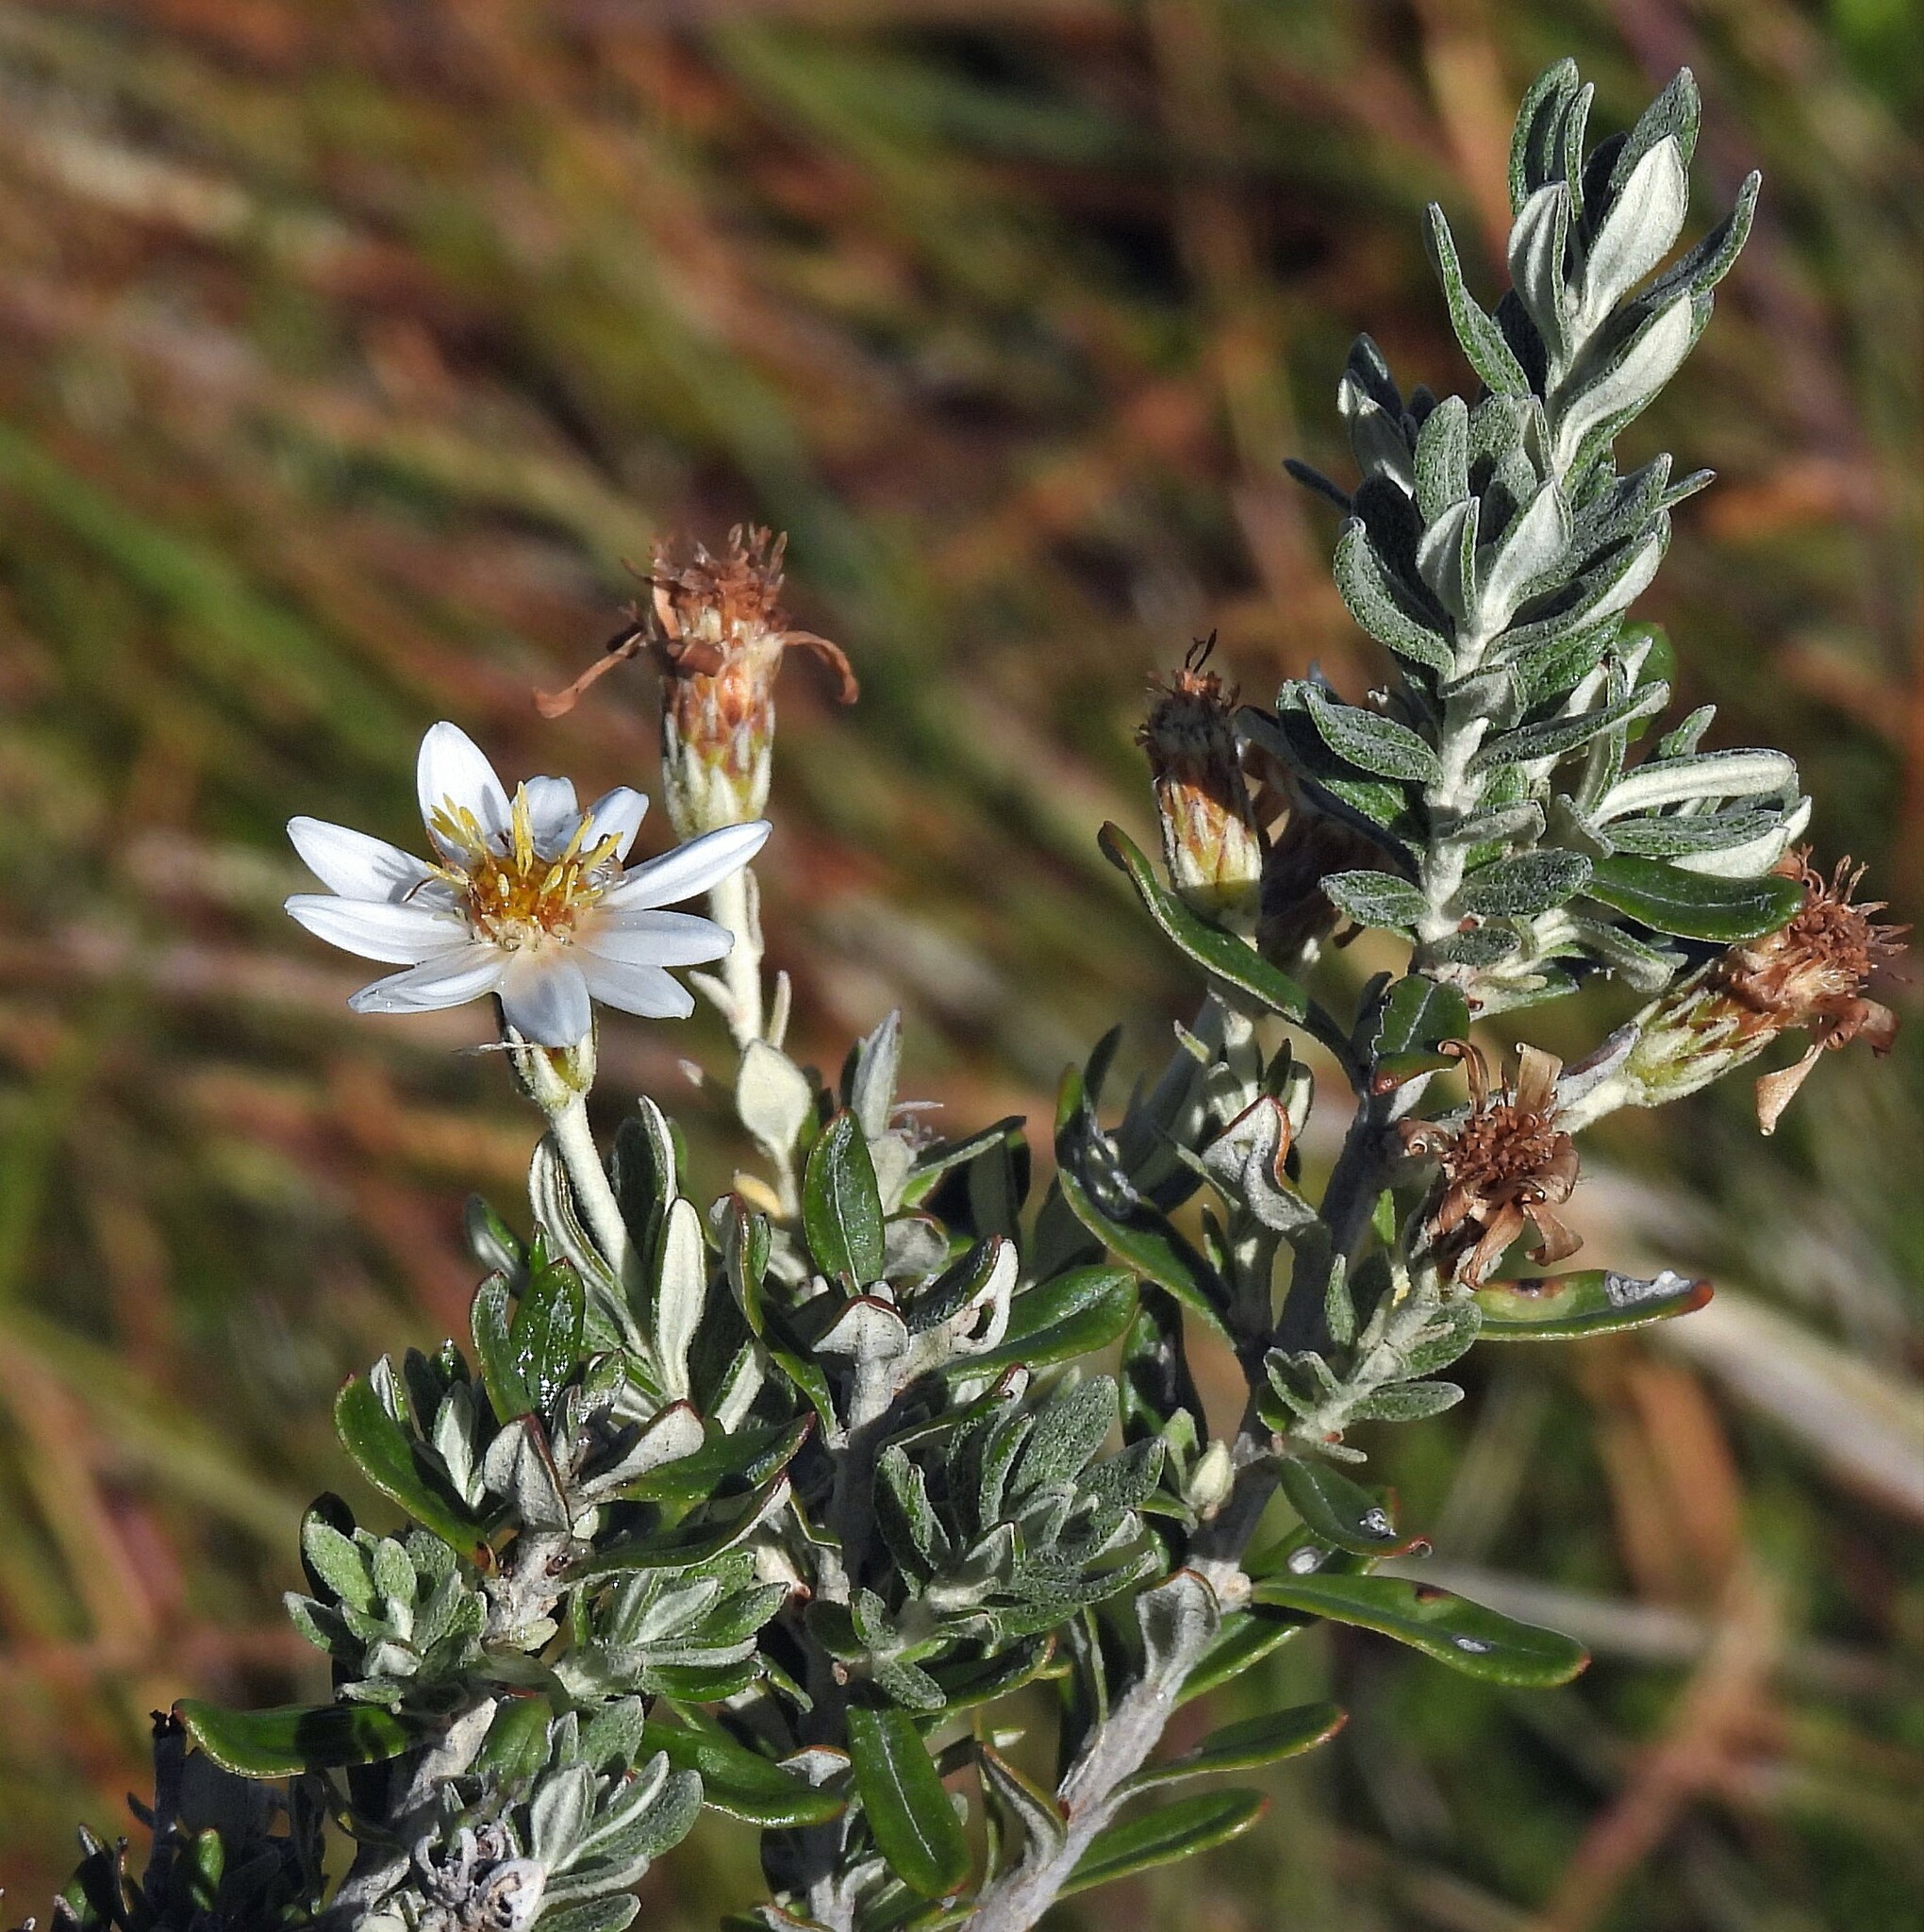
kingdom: Plantae
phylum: Tracheophyta
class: Magnoliopsida
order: Asterales
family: Asteraceae
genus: Chiliotrichum
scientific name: Chiliotrichum diffusum
